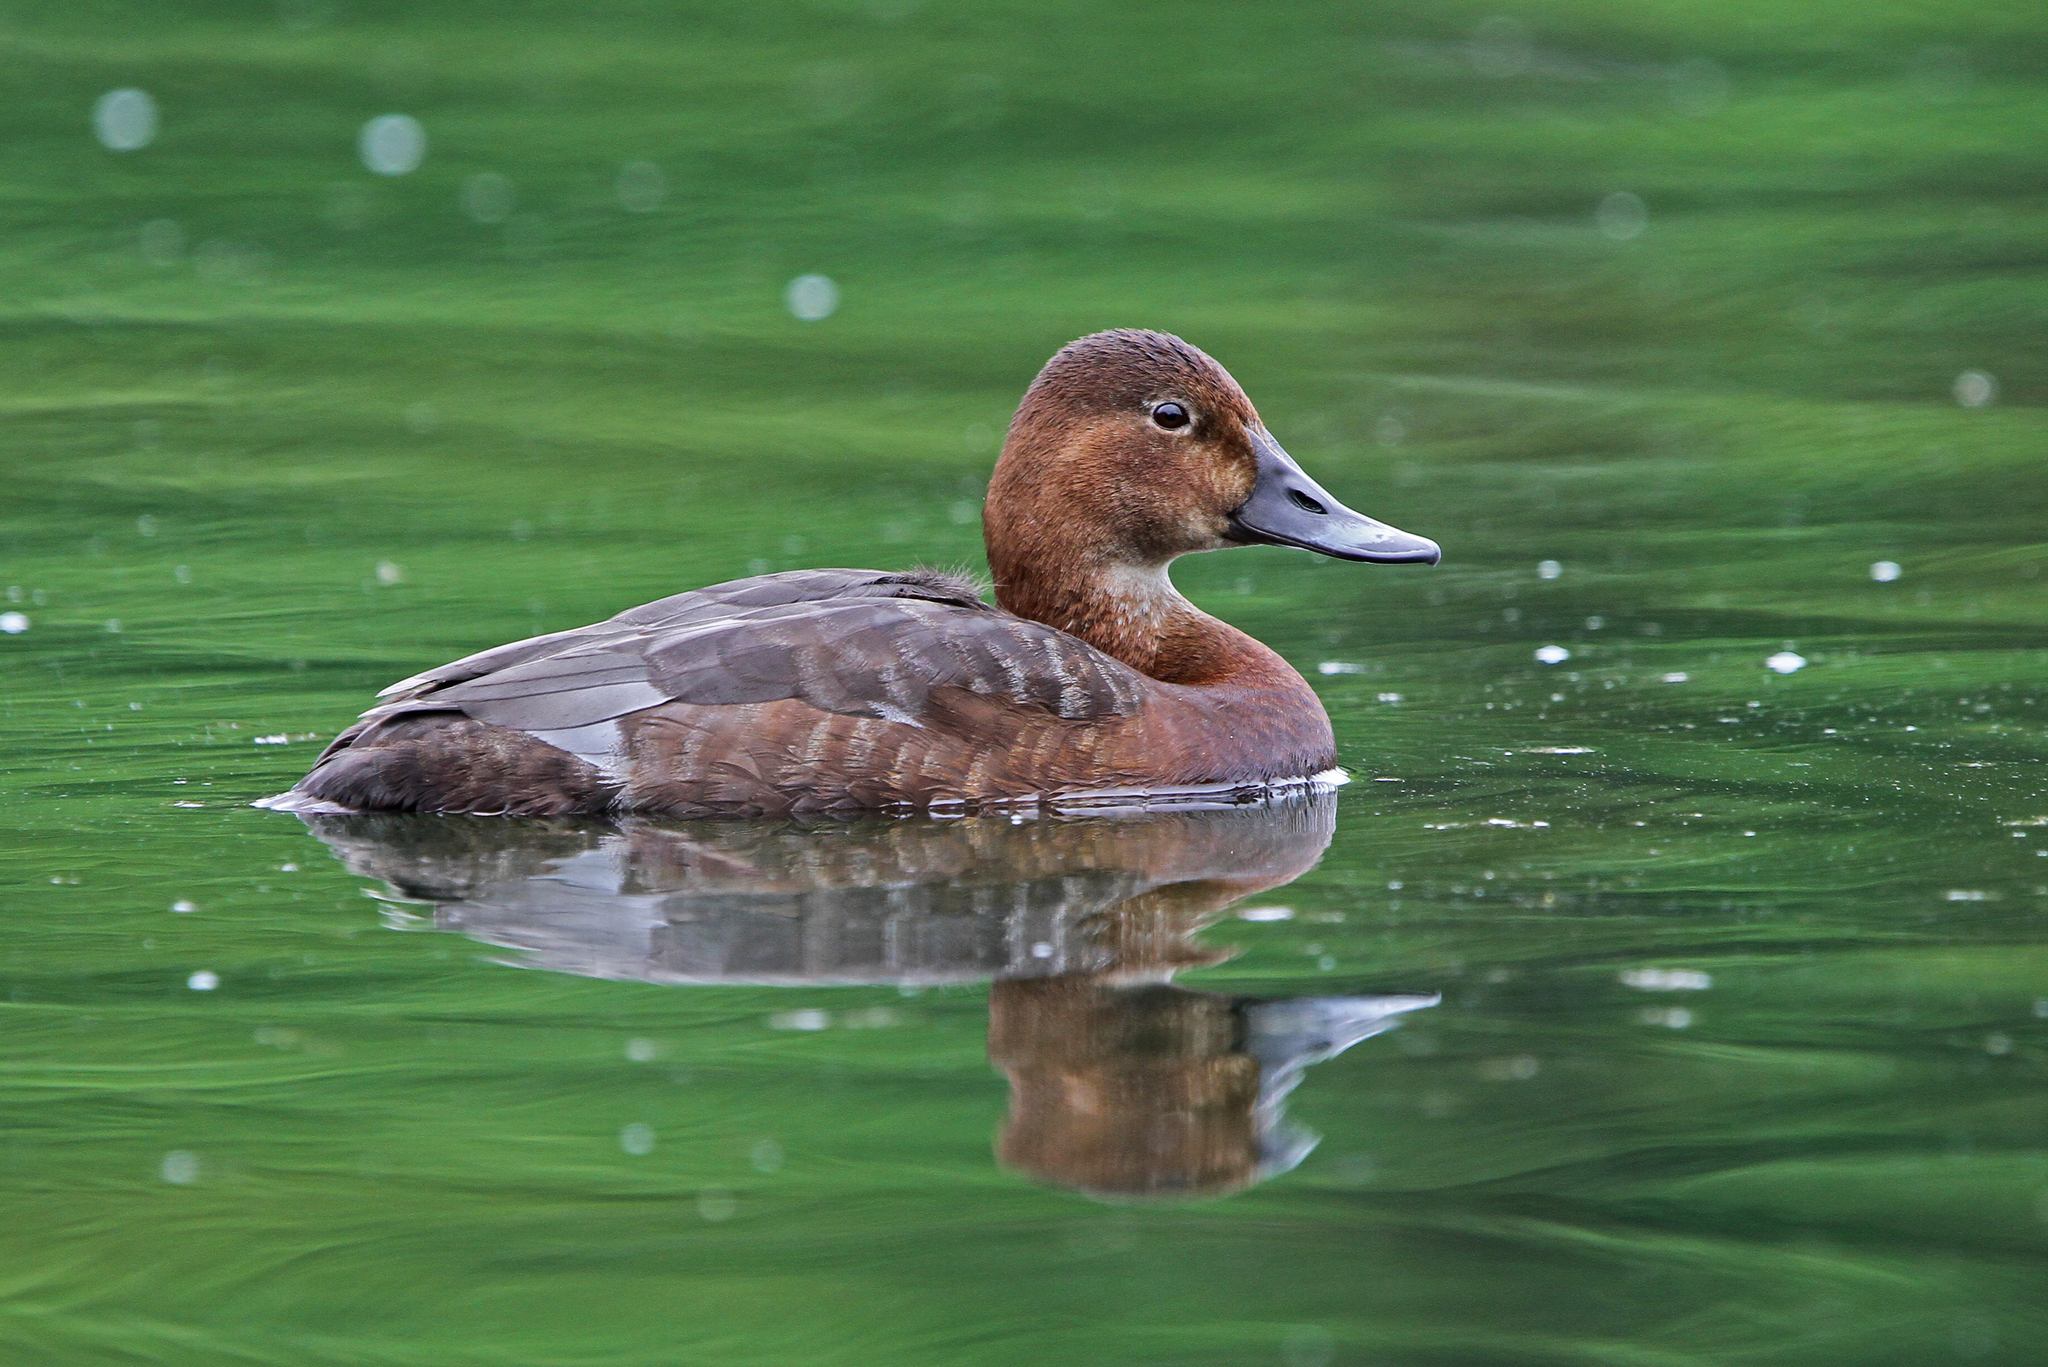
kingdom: Animalia
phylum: Chordata
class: Aves
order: Anseriformes
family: Anatidae
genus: Aythya
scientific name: Aythya ferina
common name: Common pochard
